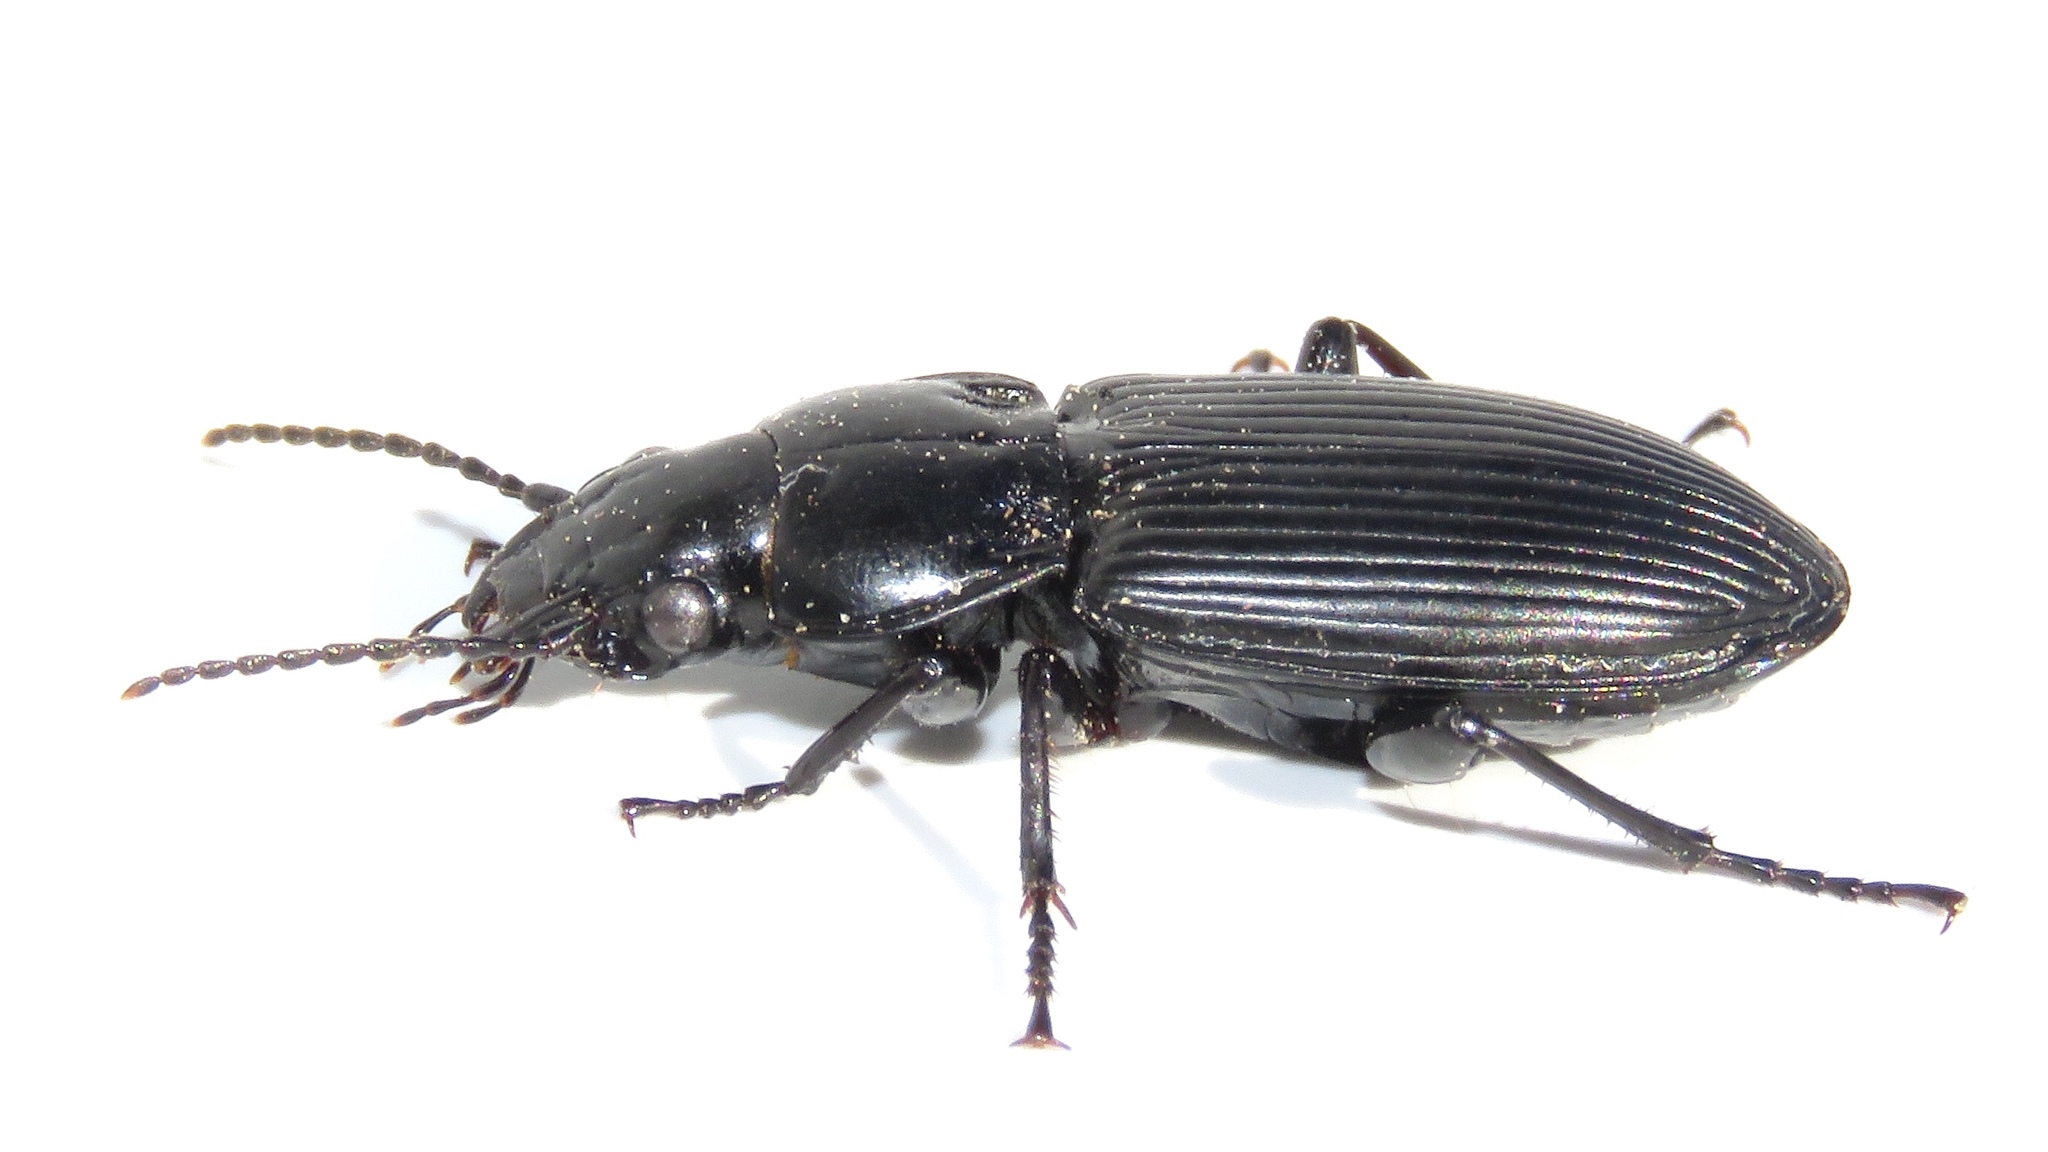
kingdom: Animalia
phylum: Arthropoda
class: Insecta
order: Coleoptera
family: Carabidae
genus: Pterostichus
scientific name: Pterostichus melanarius
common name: European dark harp ground beetle
